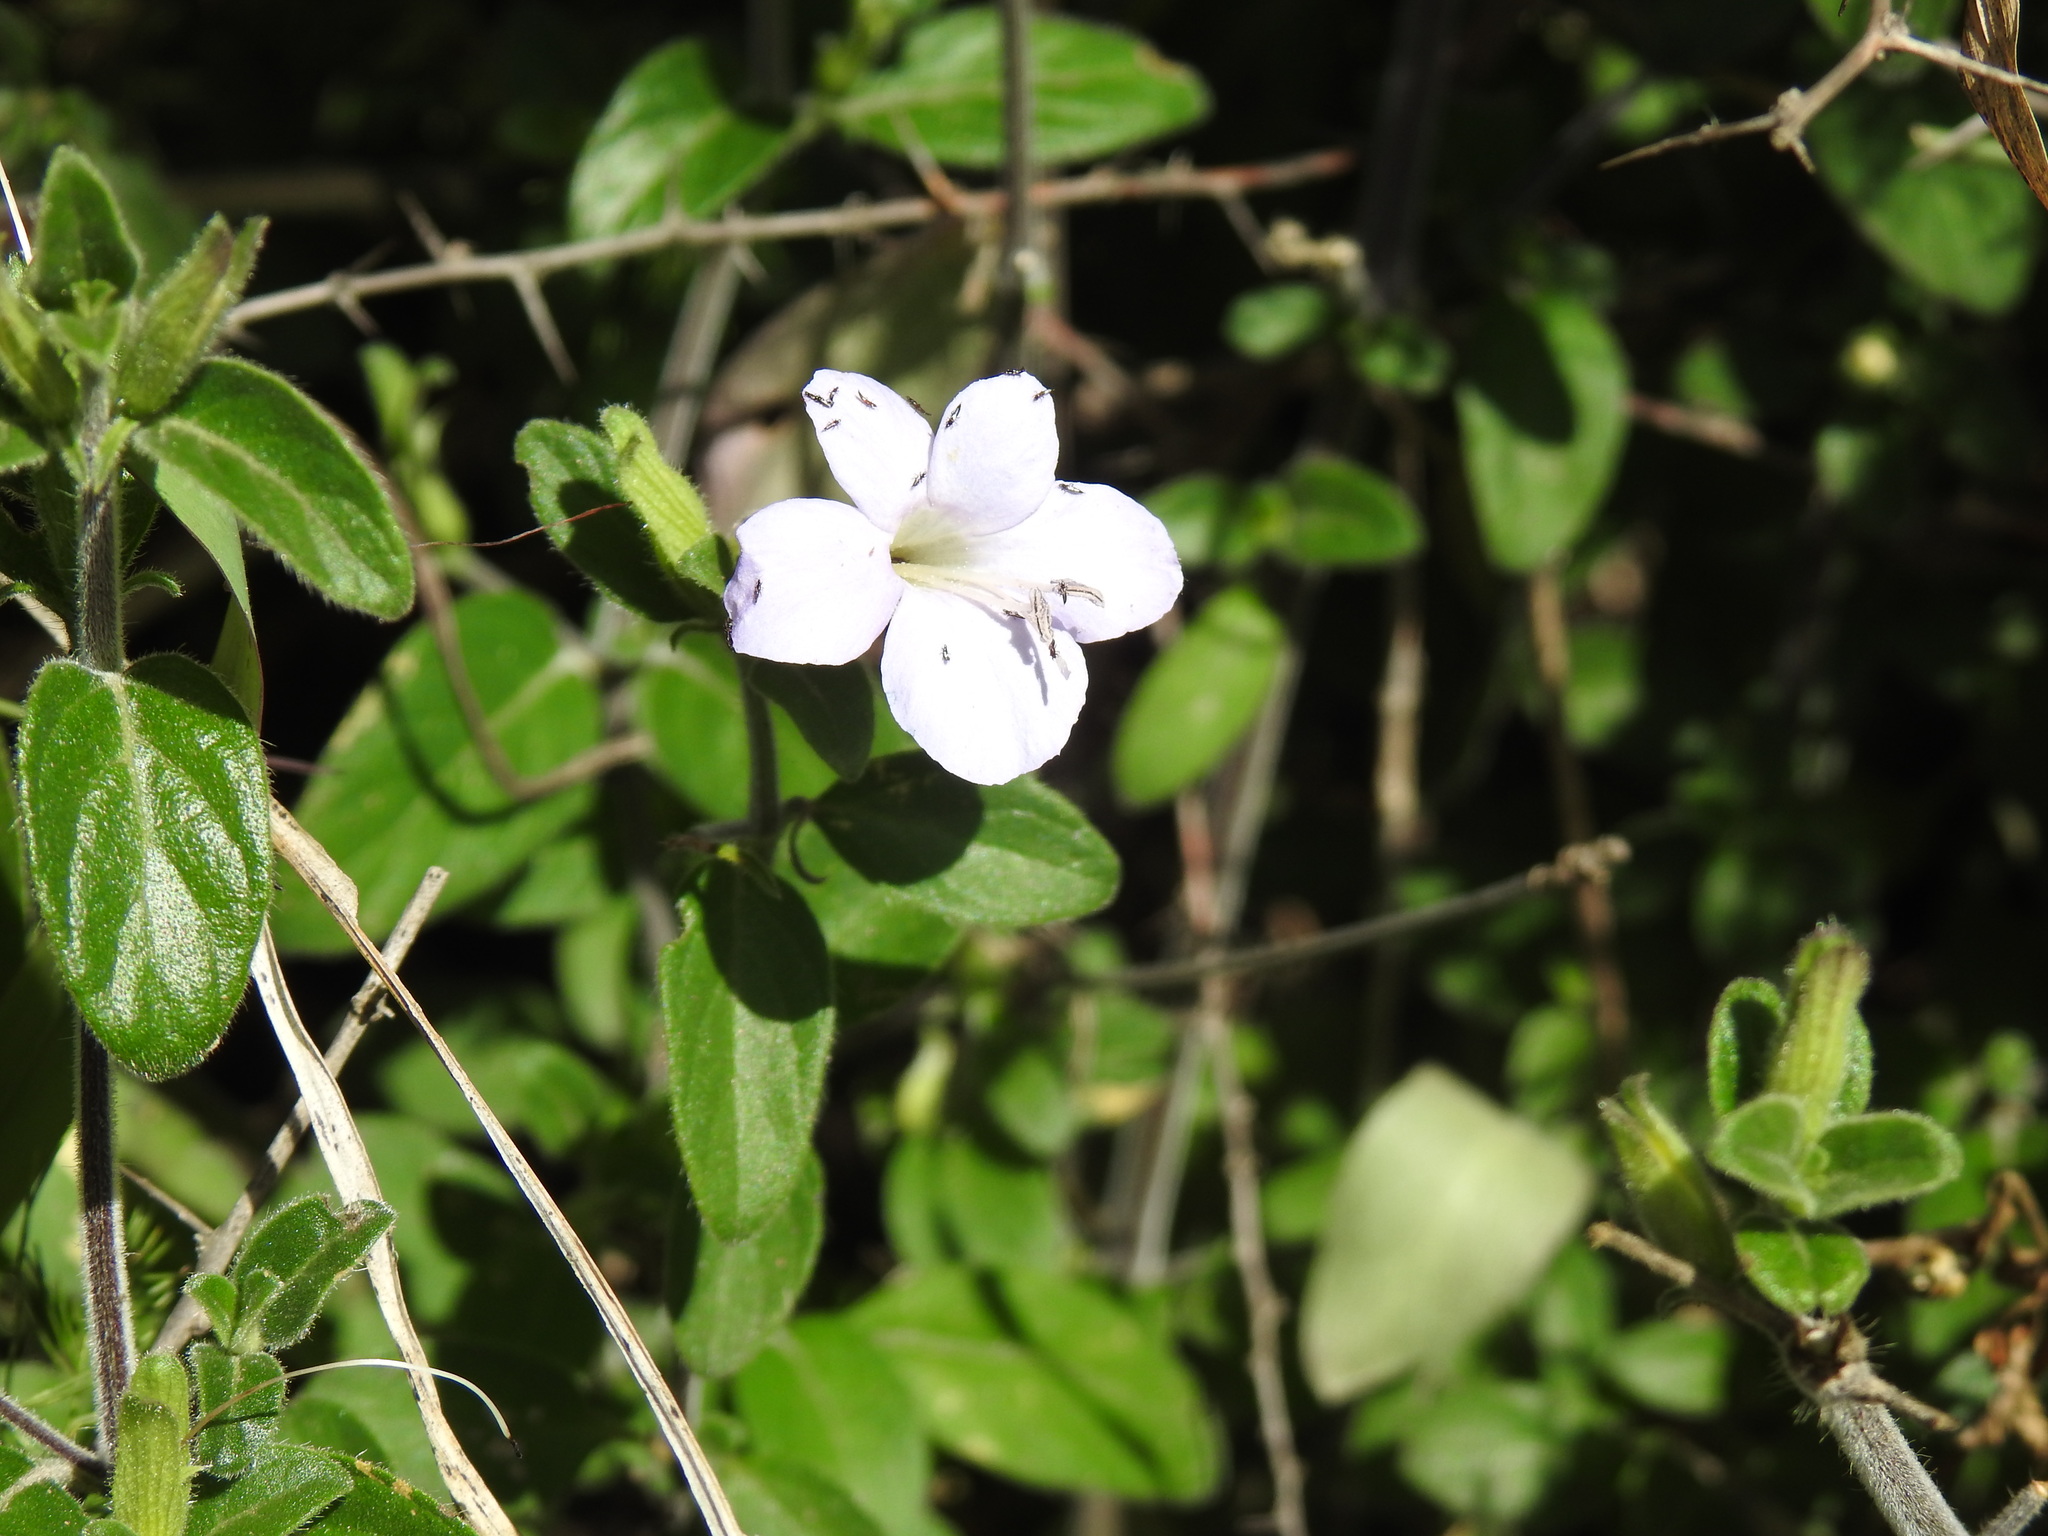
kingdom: Plantae
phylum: Tracheophyta
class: Magnoliopsida
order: Lamiales
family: Acanthaceae
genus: Barleria
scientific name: Barleria obtusa
